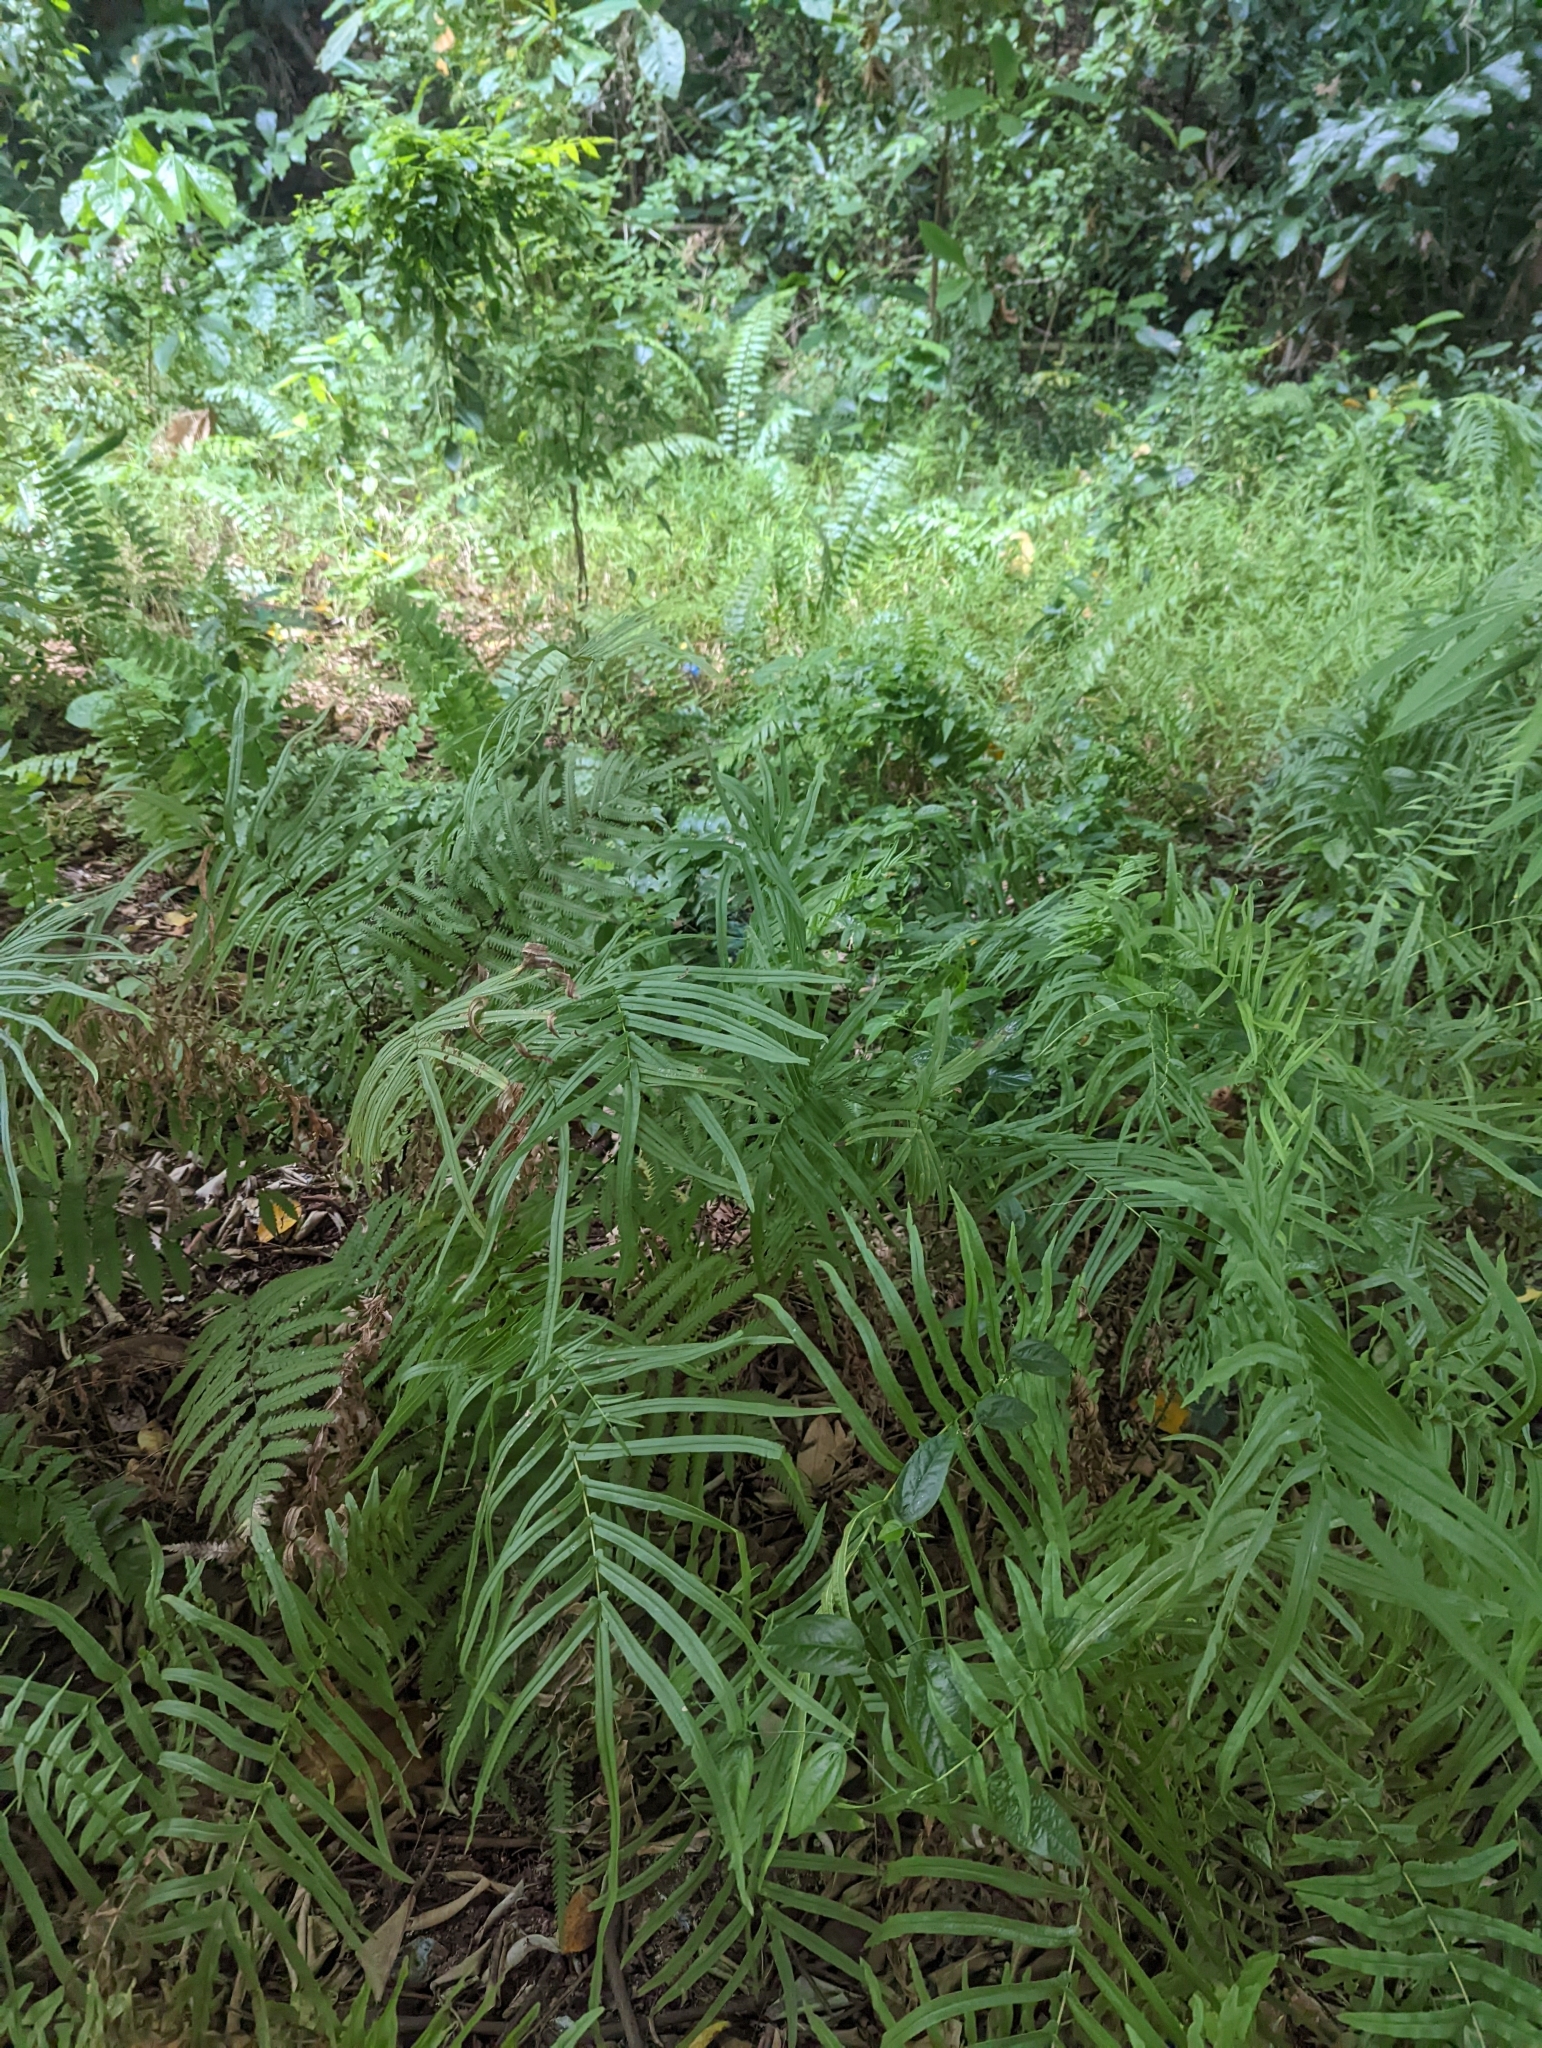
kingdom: Plantae
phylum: Tracheophyta
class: Polypodiopsida
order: Polypodiales
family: Pteridaceae
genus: Pteris
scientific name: Pteris vittata
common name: Ladder brake
